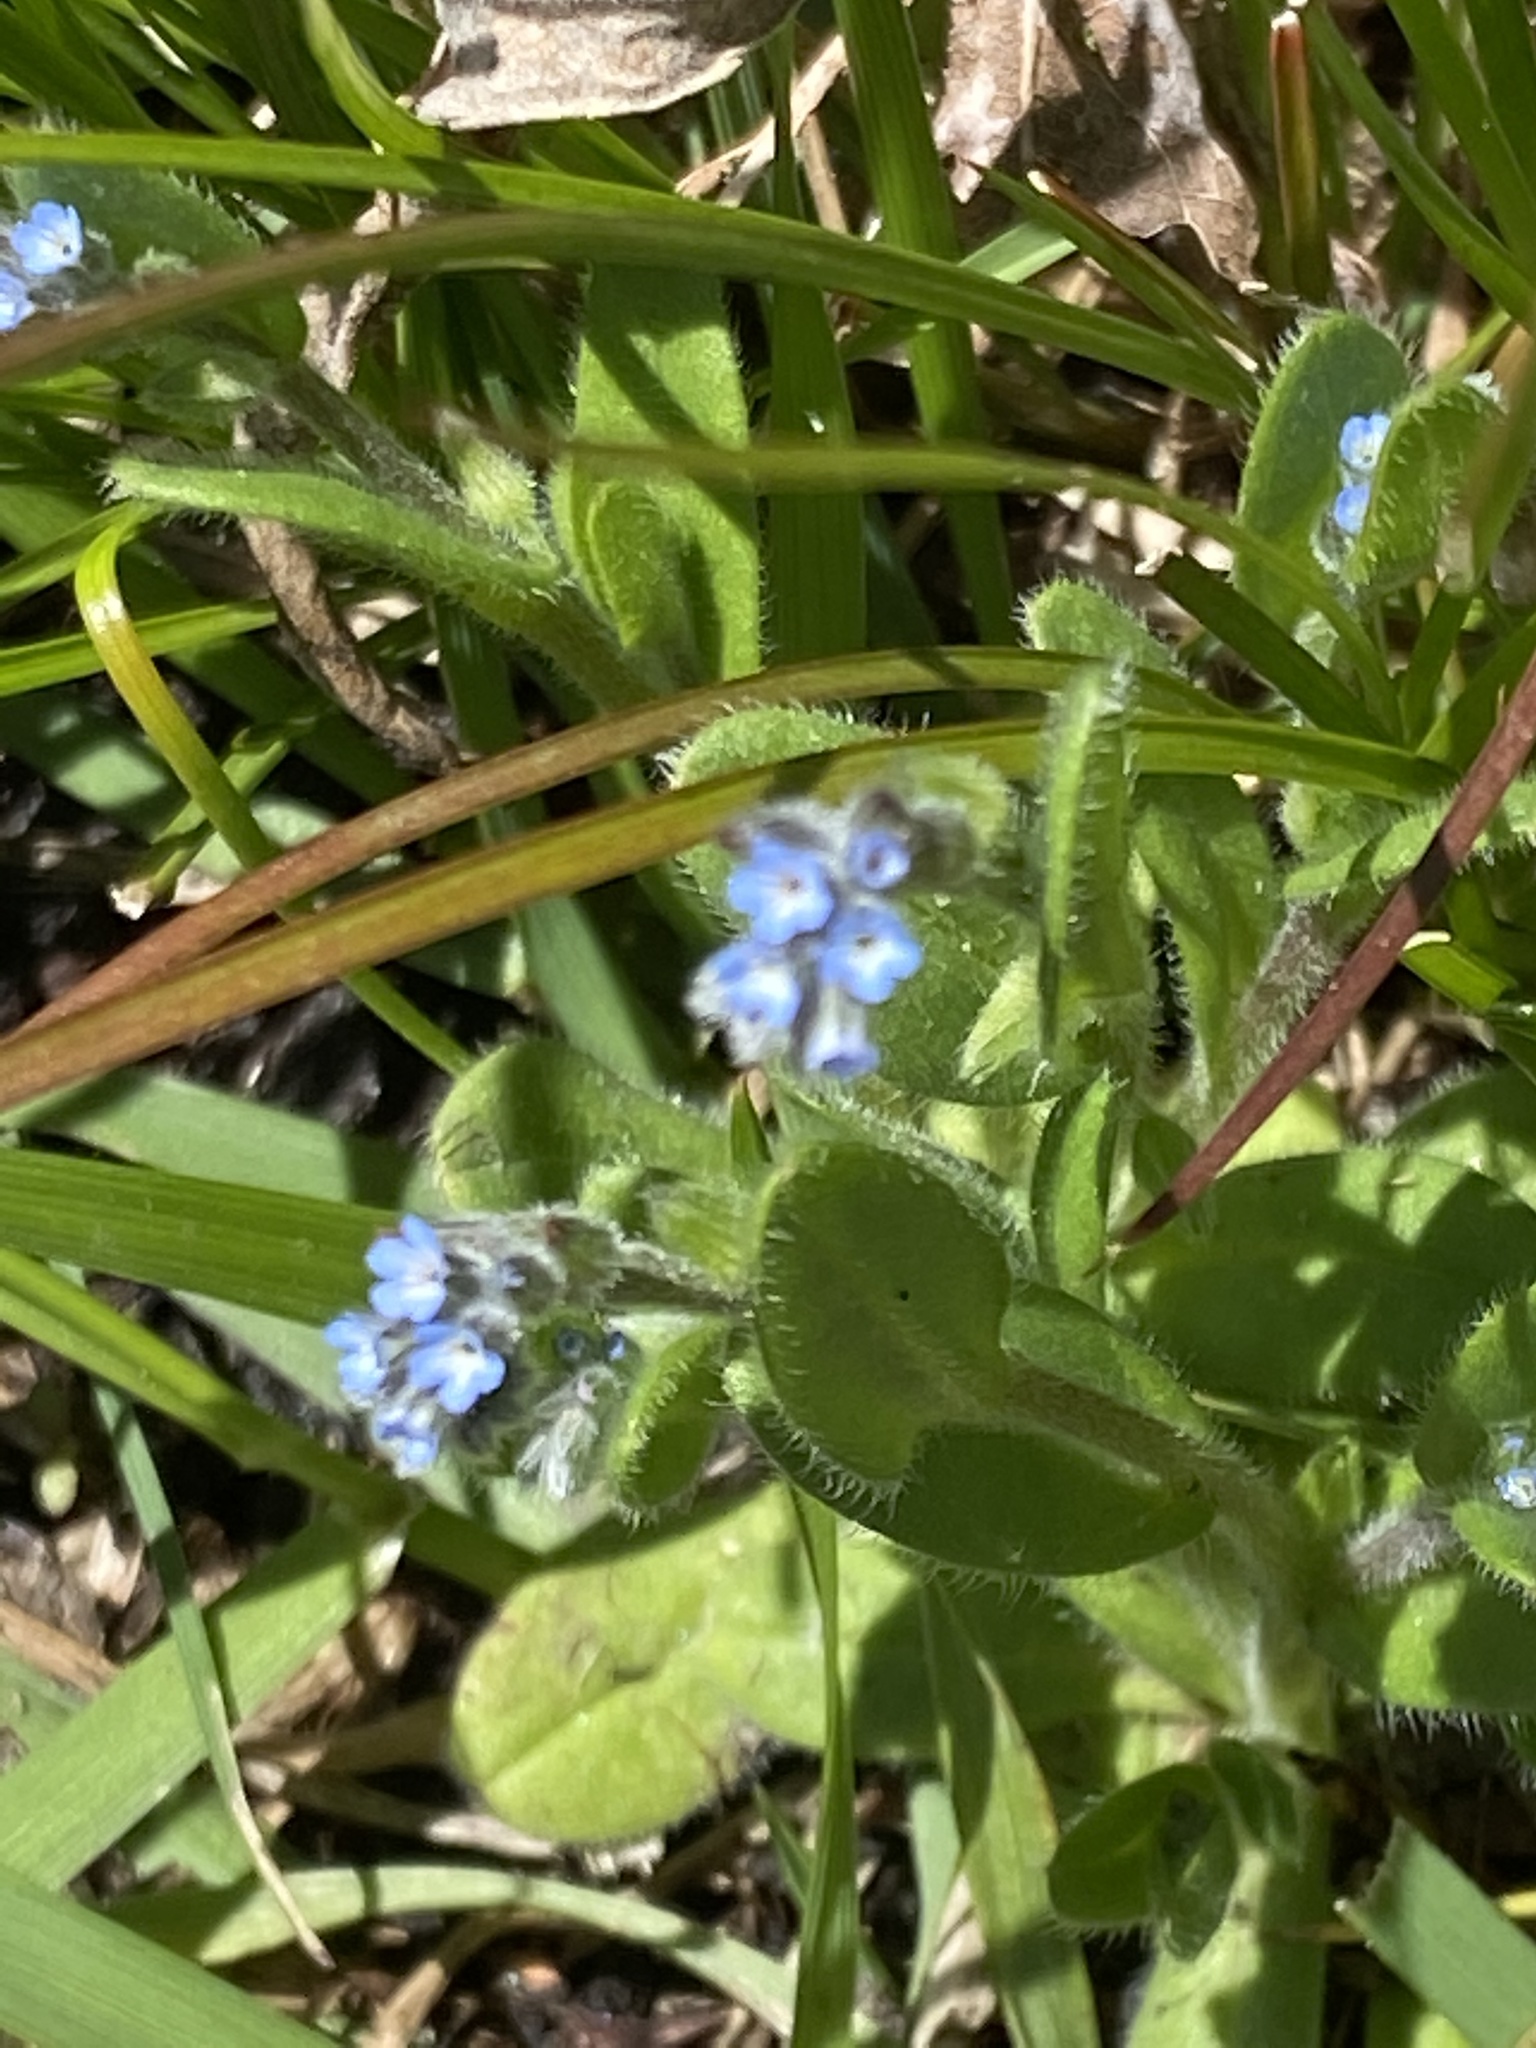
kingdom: Plantae
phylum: Tracheophyta
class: Magnoliopsida
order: Boraginales
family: Boraginaceae
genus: Myosotis
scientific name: Myosotis stricta
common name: Strict forget-me-not
